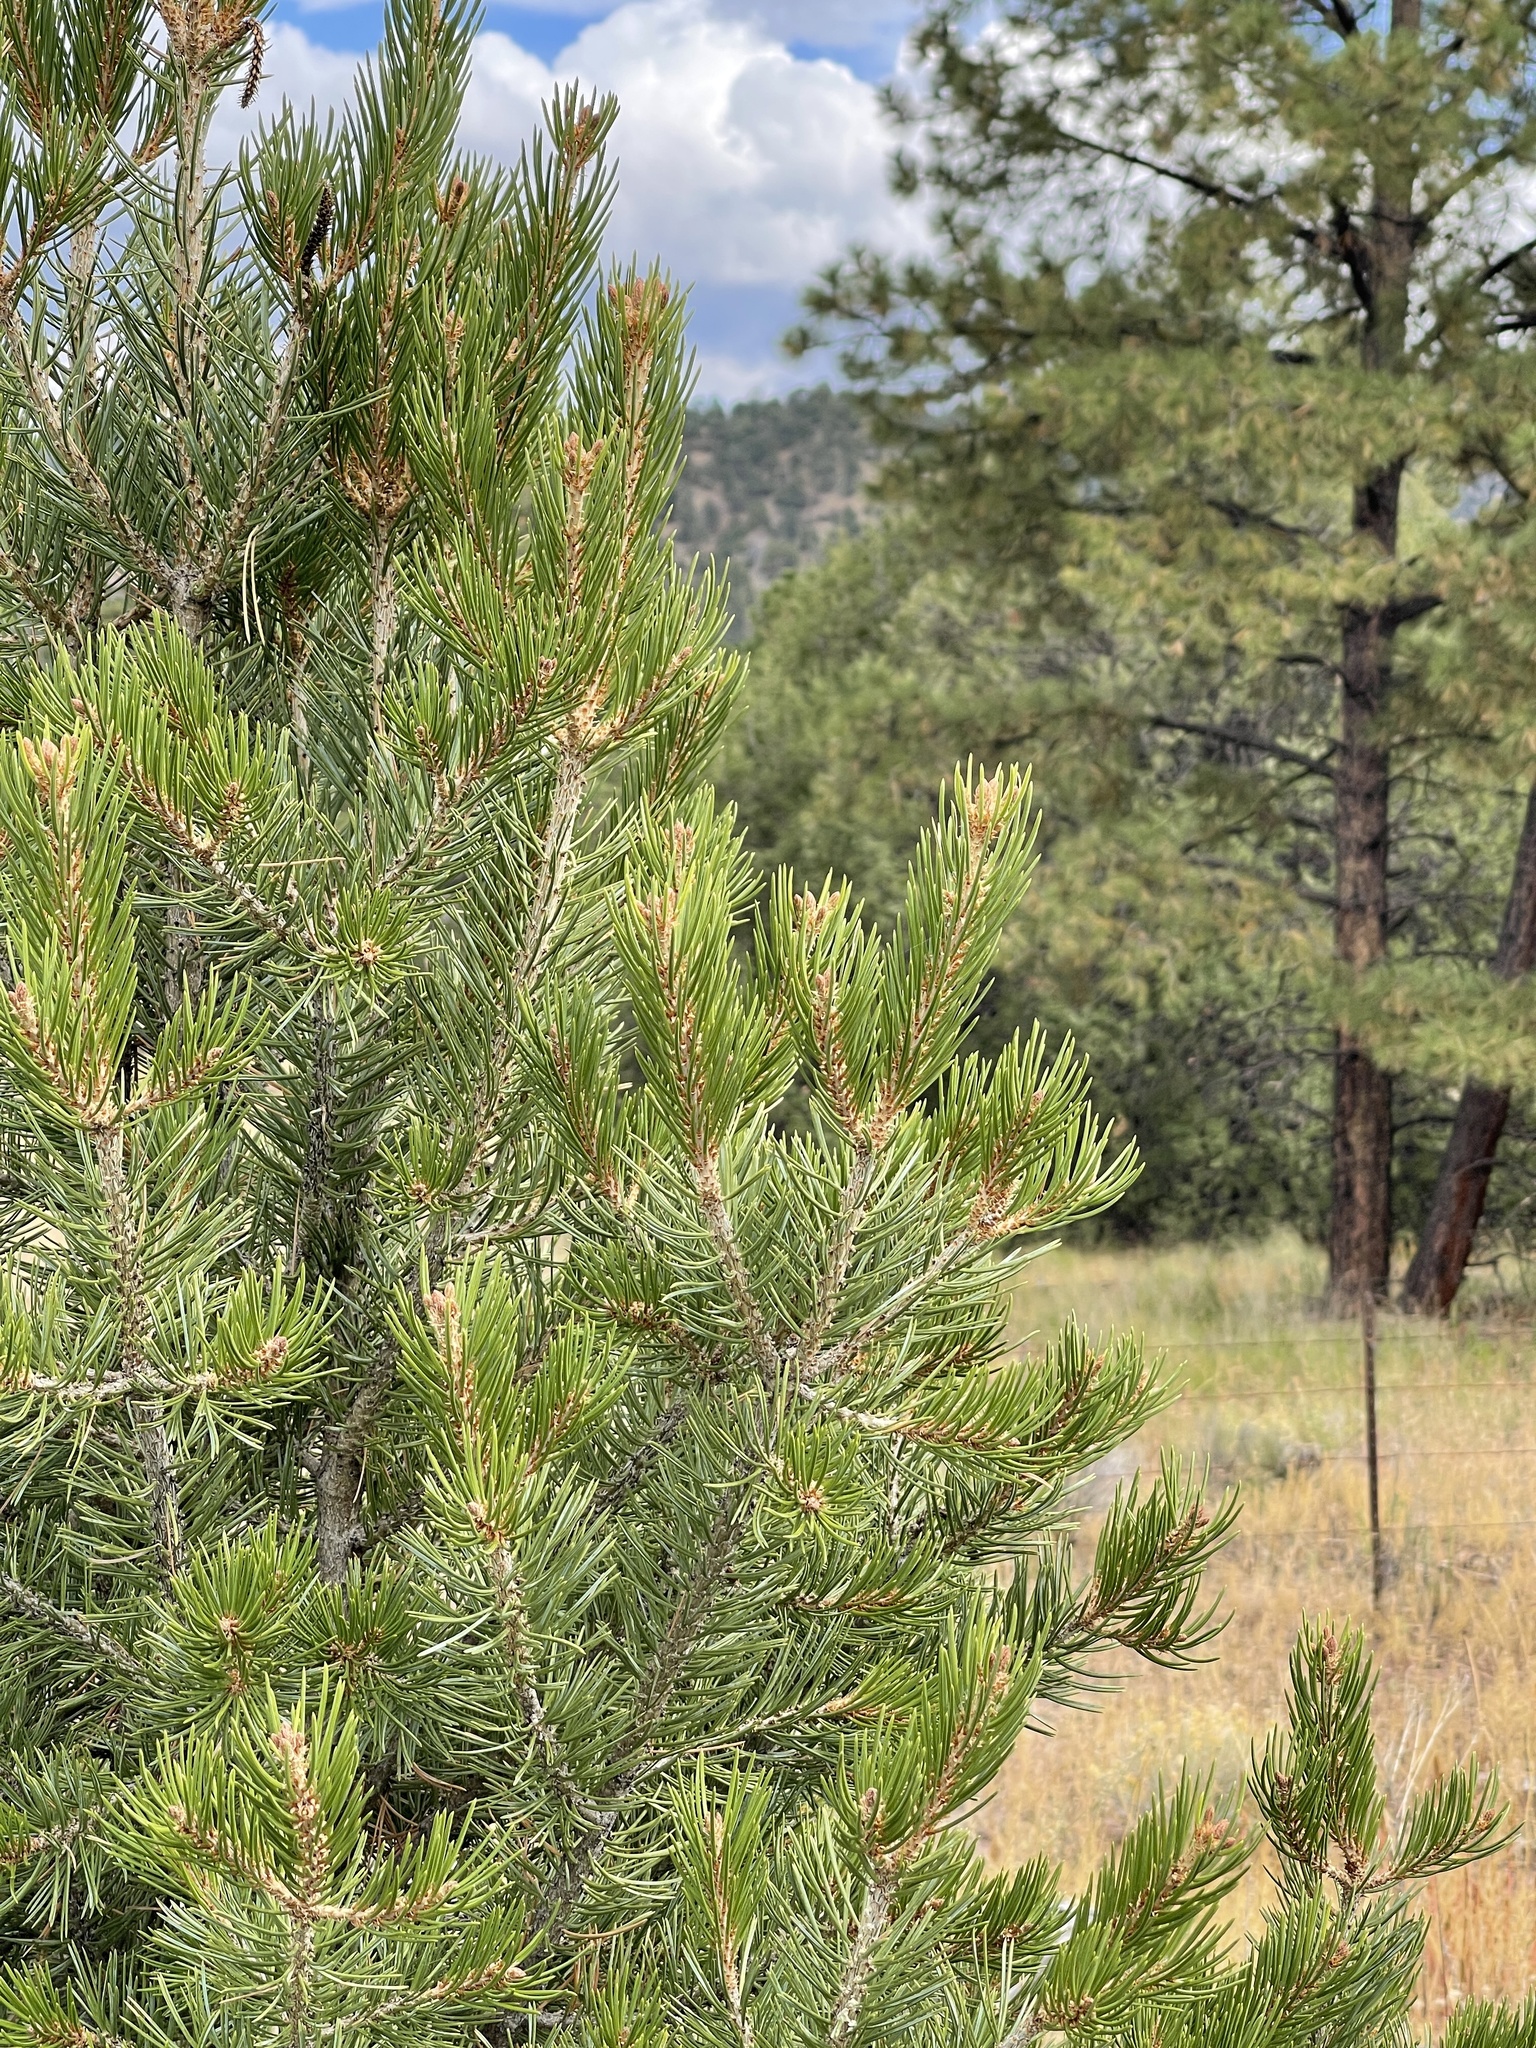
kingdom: Plantae
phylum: Tracheophyta
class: Pinopsida
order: Pinales
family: Pinaceae
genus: Pinus
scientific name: Pinus edulis
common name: Colorado pinyon
